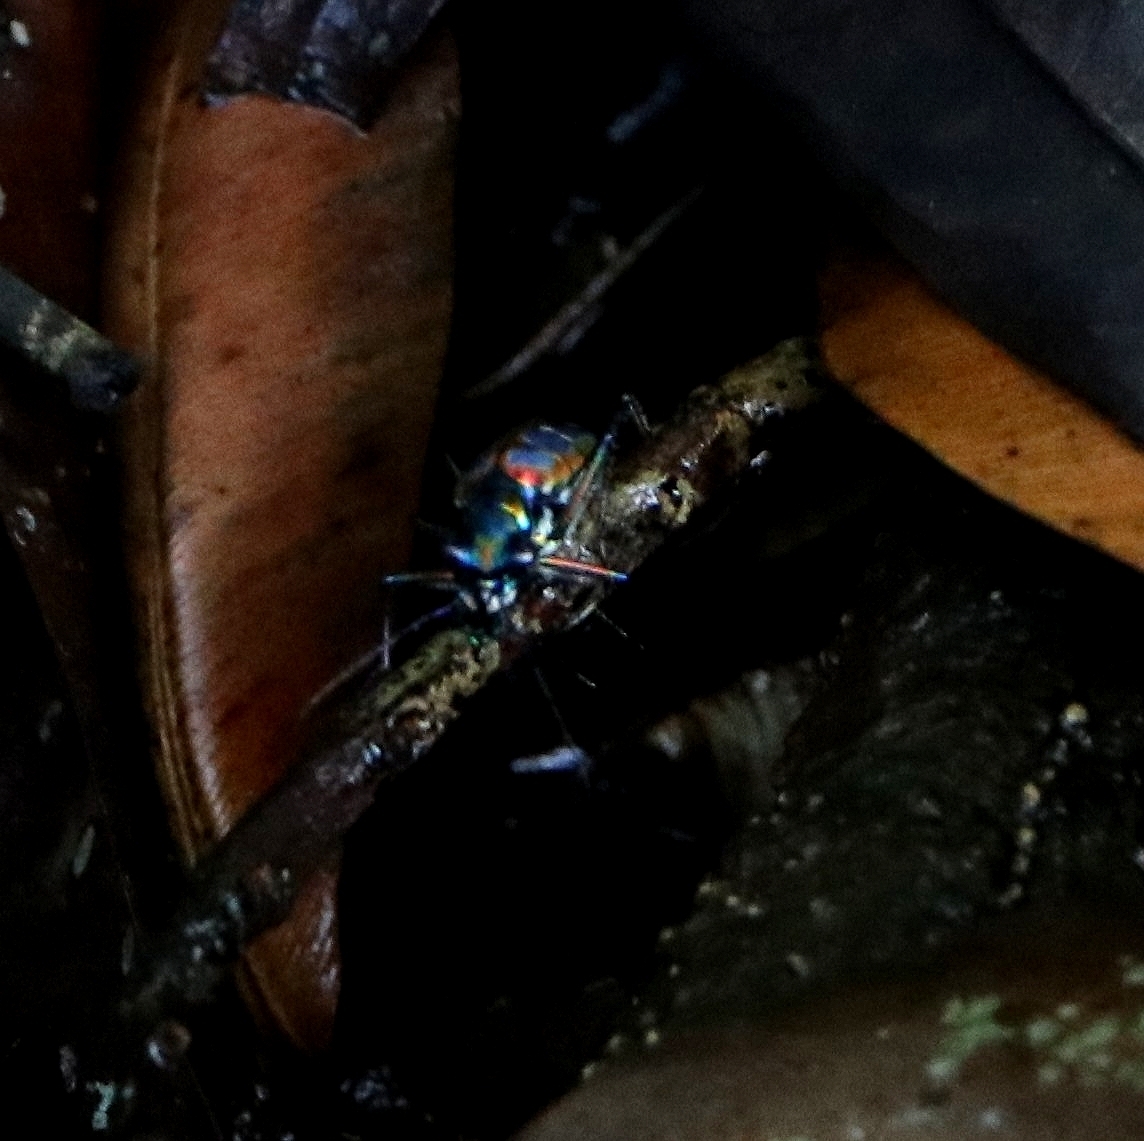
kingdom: Animalia
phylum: Arthropoda
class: Insecta
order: Coleoptera
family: Carabidae
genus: Cicindela
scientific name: Cicindela barmanica
